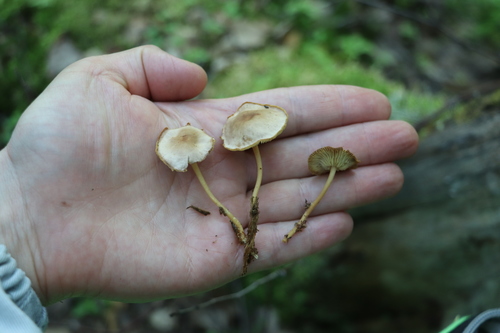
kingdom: Fungi
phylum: Basidiomycota
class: Agaricomycetes
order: Agaricales
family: Omphalotaceae
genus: Gymnopus
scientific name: Gymnopus ocior
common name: Spring toughshank
